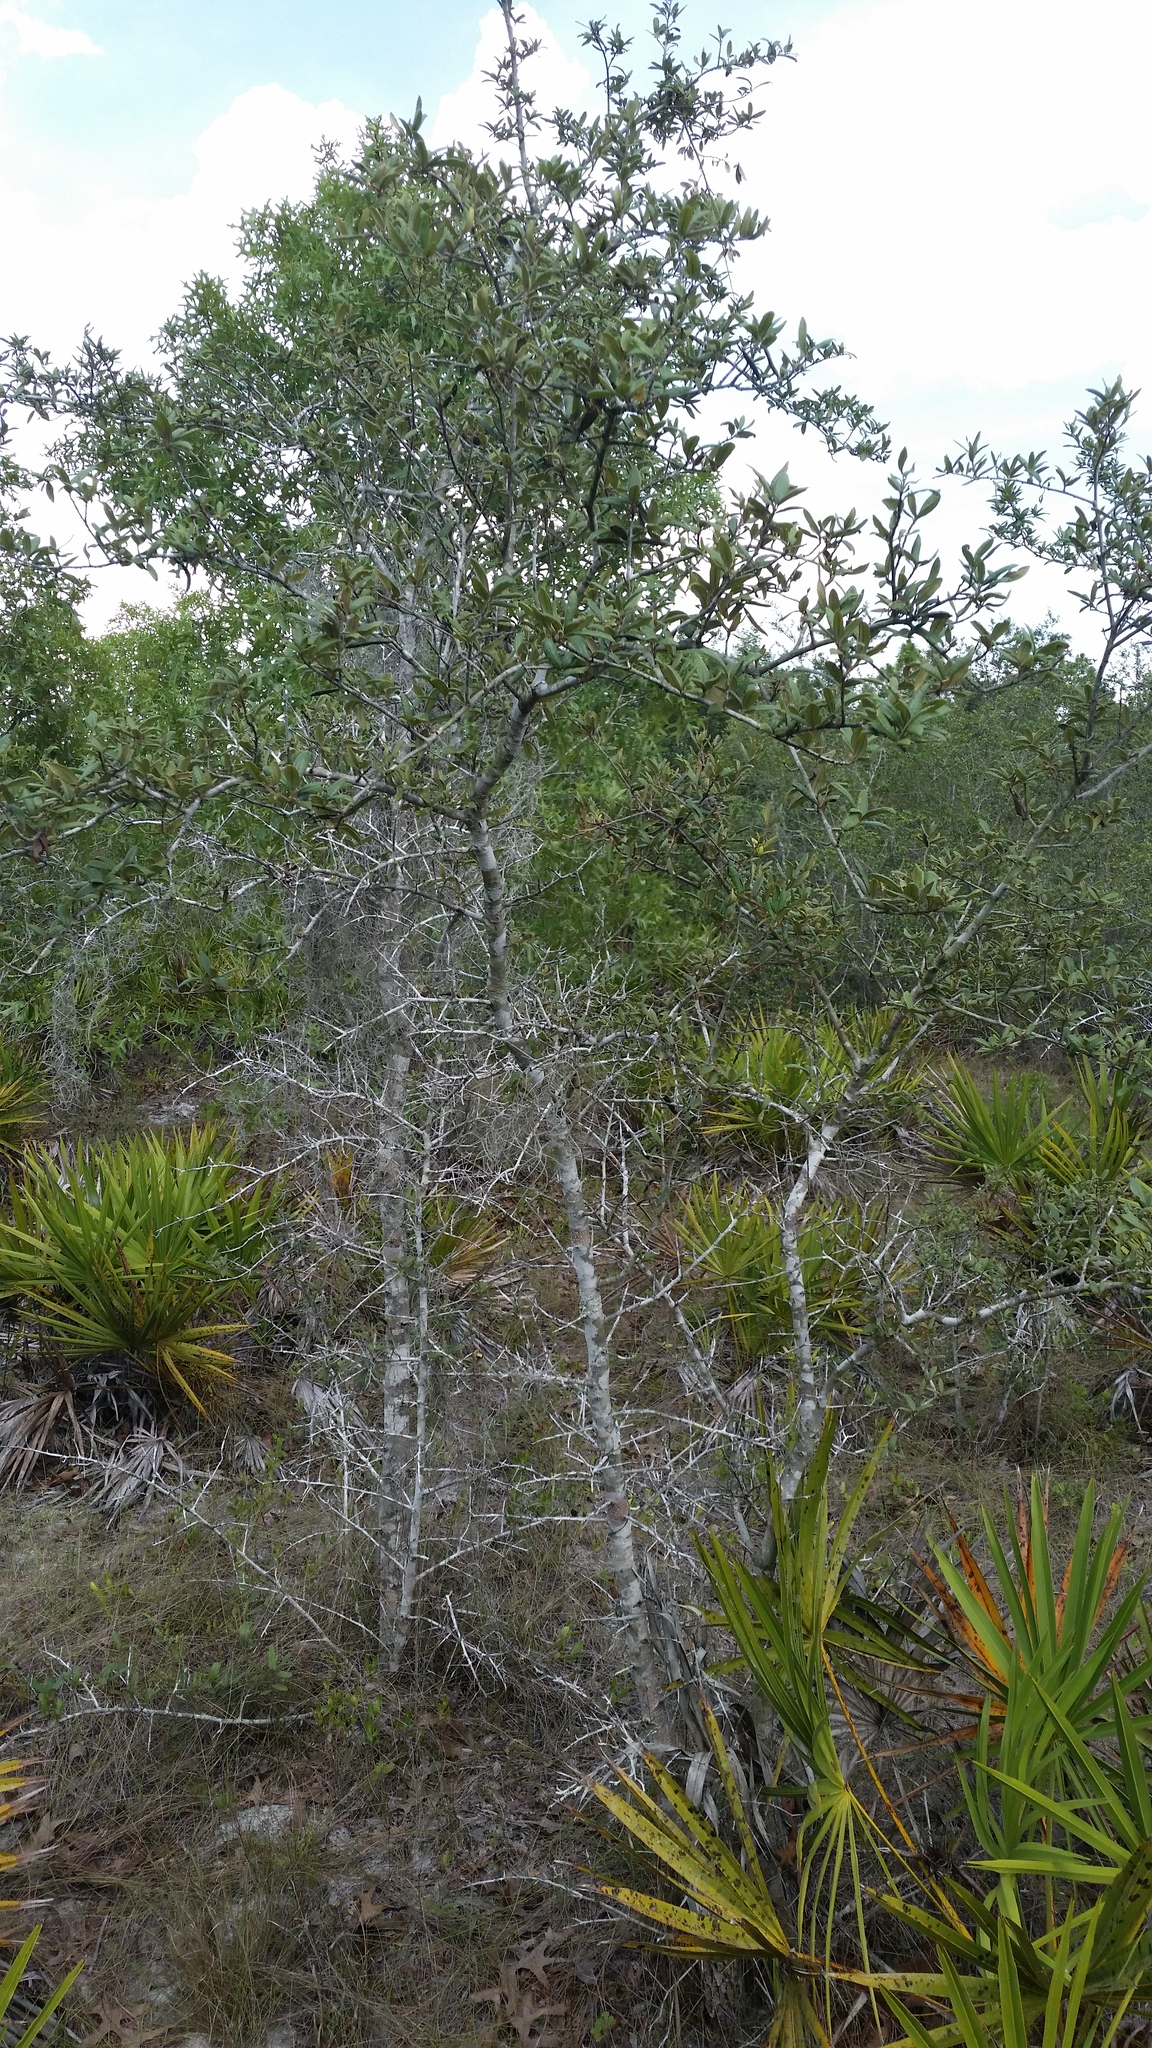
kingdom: Plantae
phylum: Tracheophyta
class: Magnoliopsida
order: Fagales
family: Fagaceae
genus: Quercus
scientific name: Quercus geminata
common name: Sand live oak
